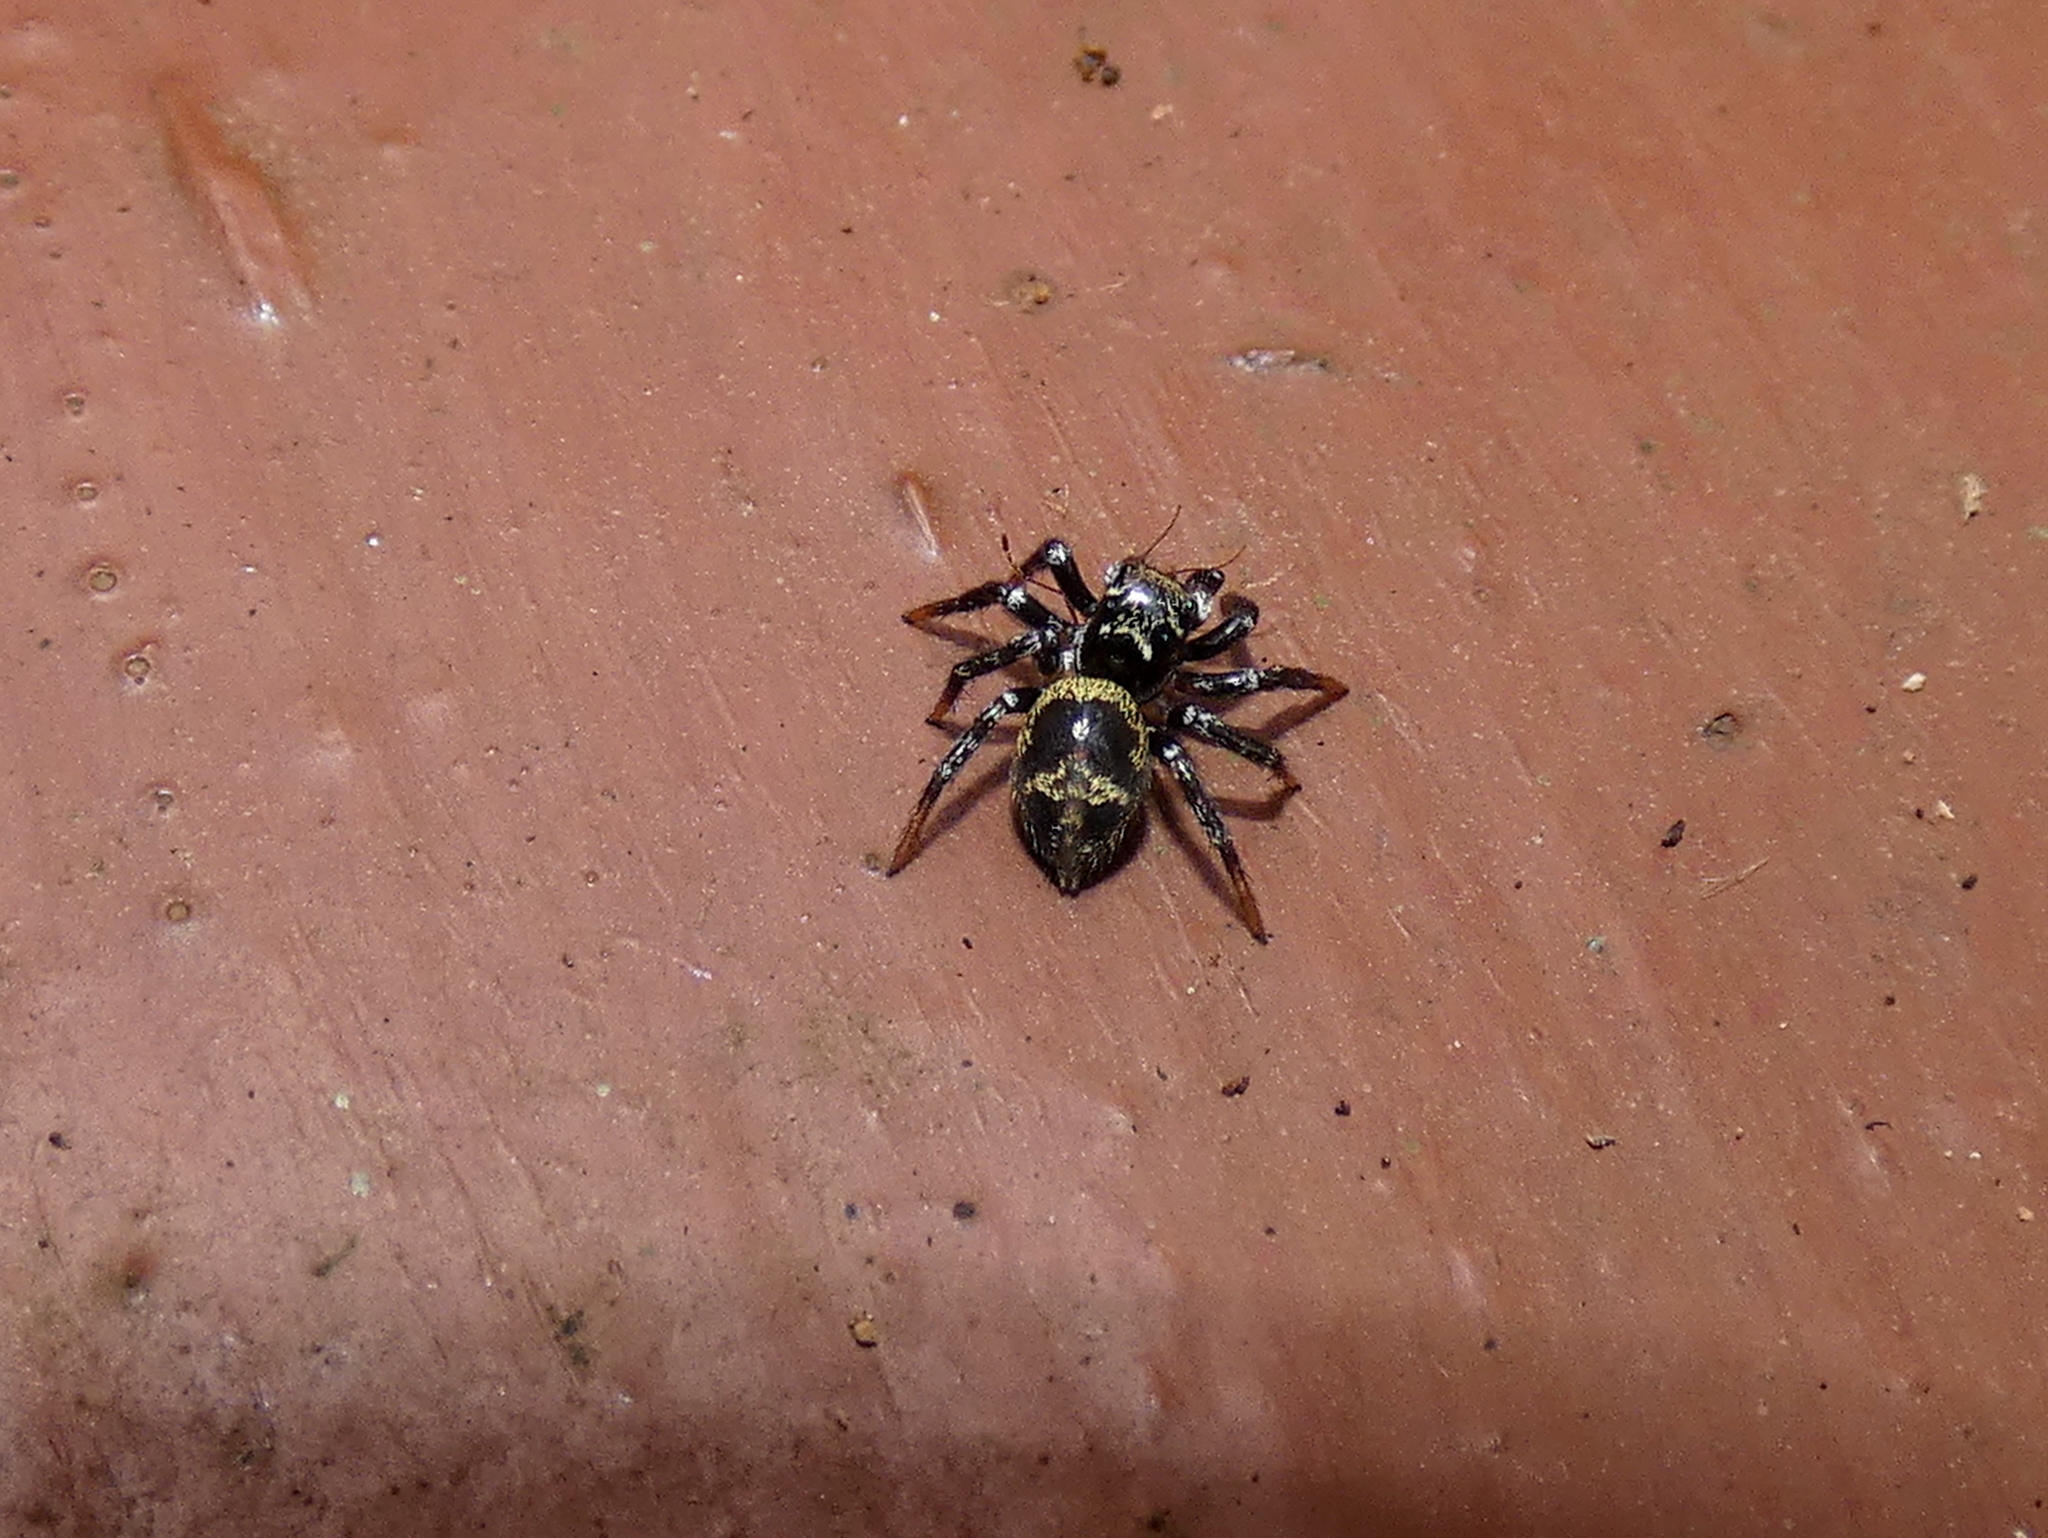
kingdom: Animalia
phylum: Arthropoda
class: Arachnida
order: Araneae
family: Salticidae
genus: Corythalia
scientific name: Corythalia bicincta
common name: Jumping spiders
